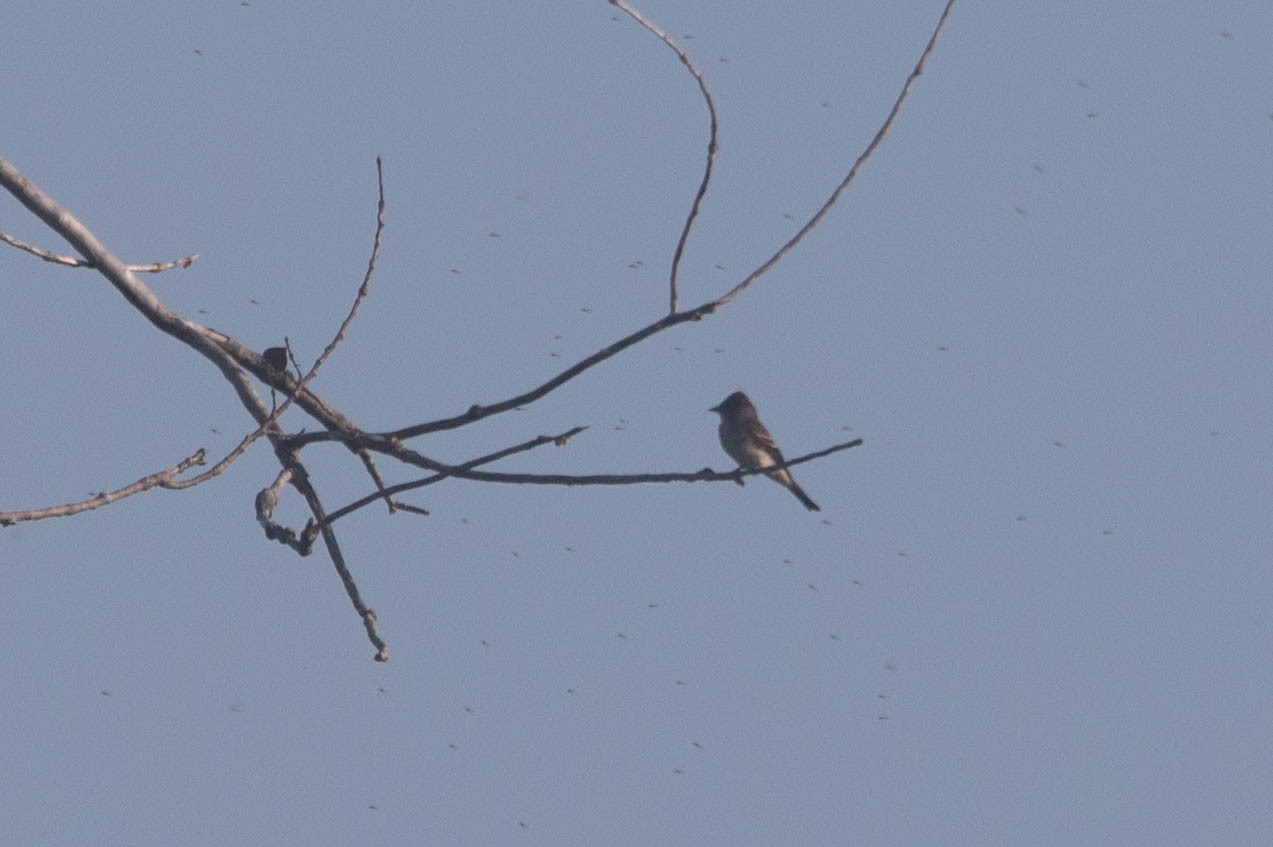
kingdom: Animalia
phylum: Chordata
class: Aves
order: Passeriformes
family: Tyrannidae
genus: Contopus
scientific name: Contopus virens
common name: Eastern wood-pewee
